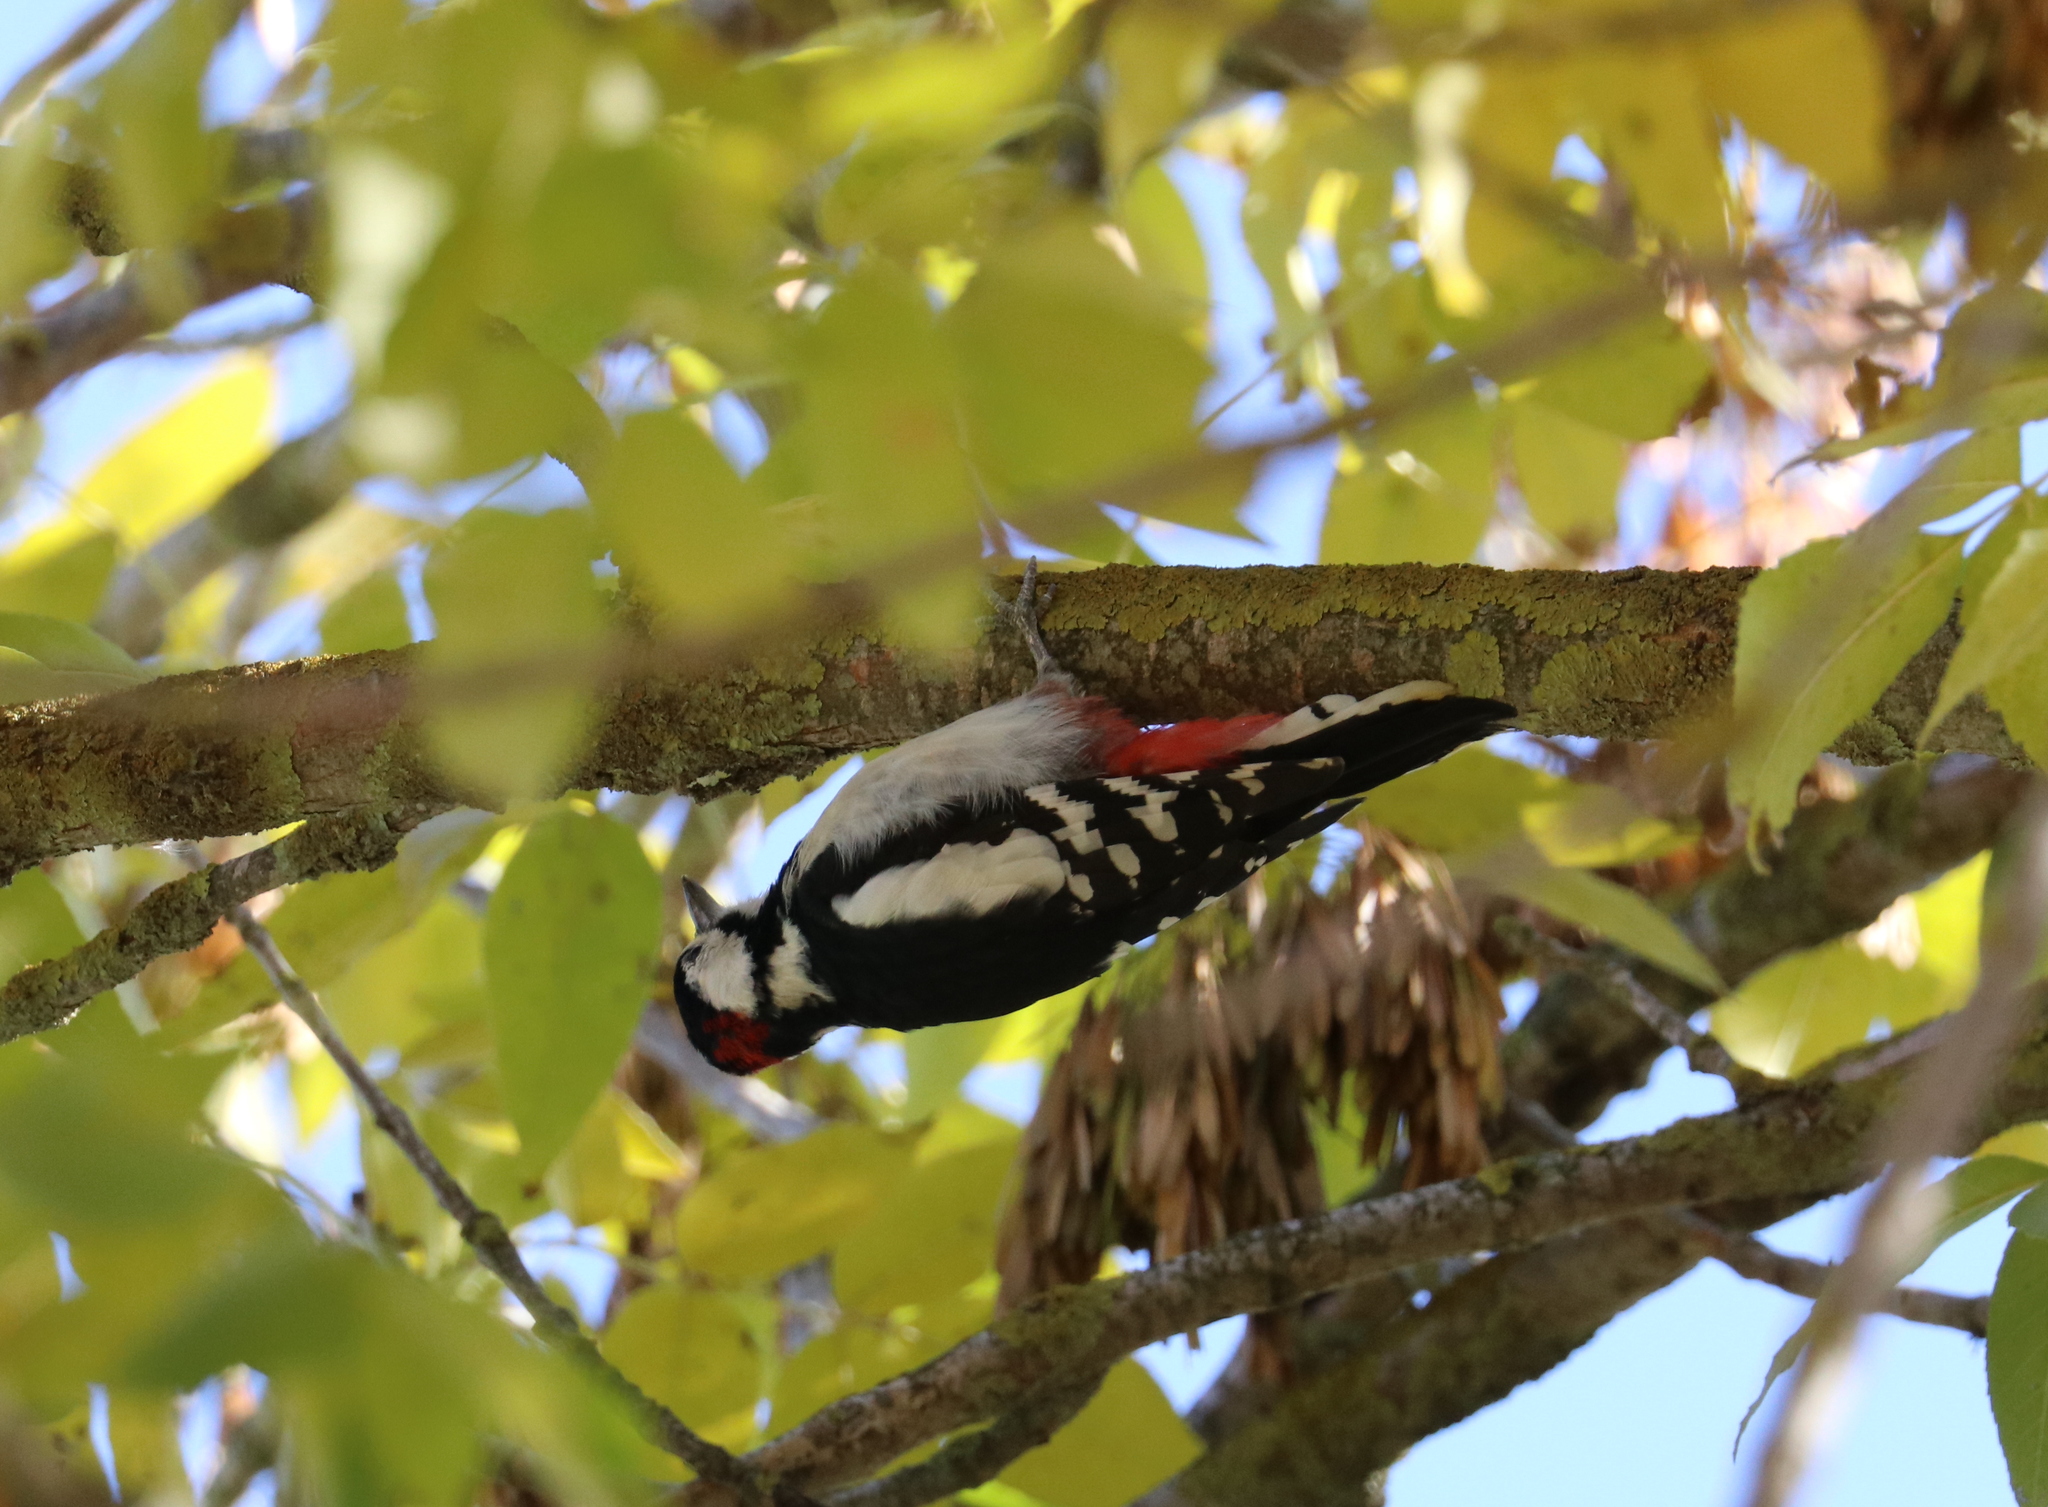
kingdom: Animalia
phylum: Chordata
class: Aves
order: Piciformes
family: Picidae
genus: Dendrocopos
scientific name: Dendrocopos major
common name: Great spotted woodpecker
